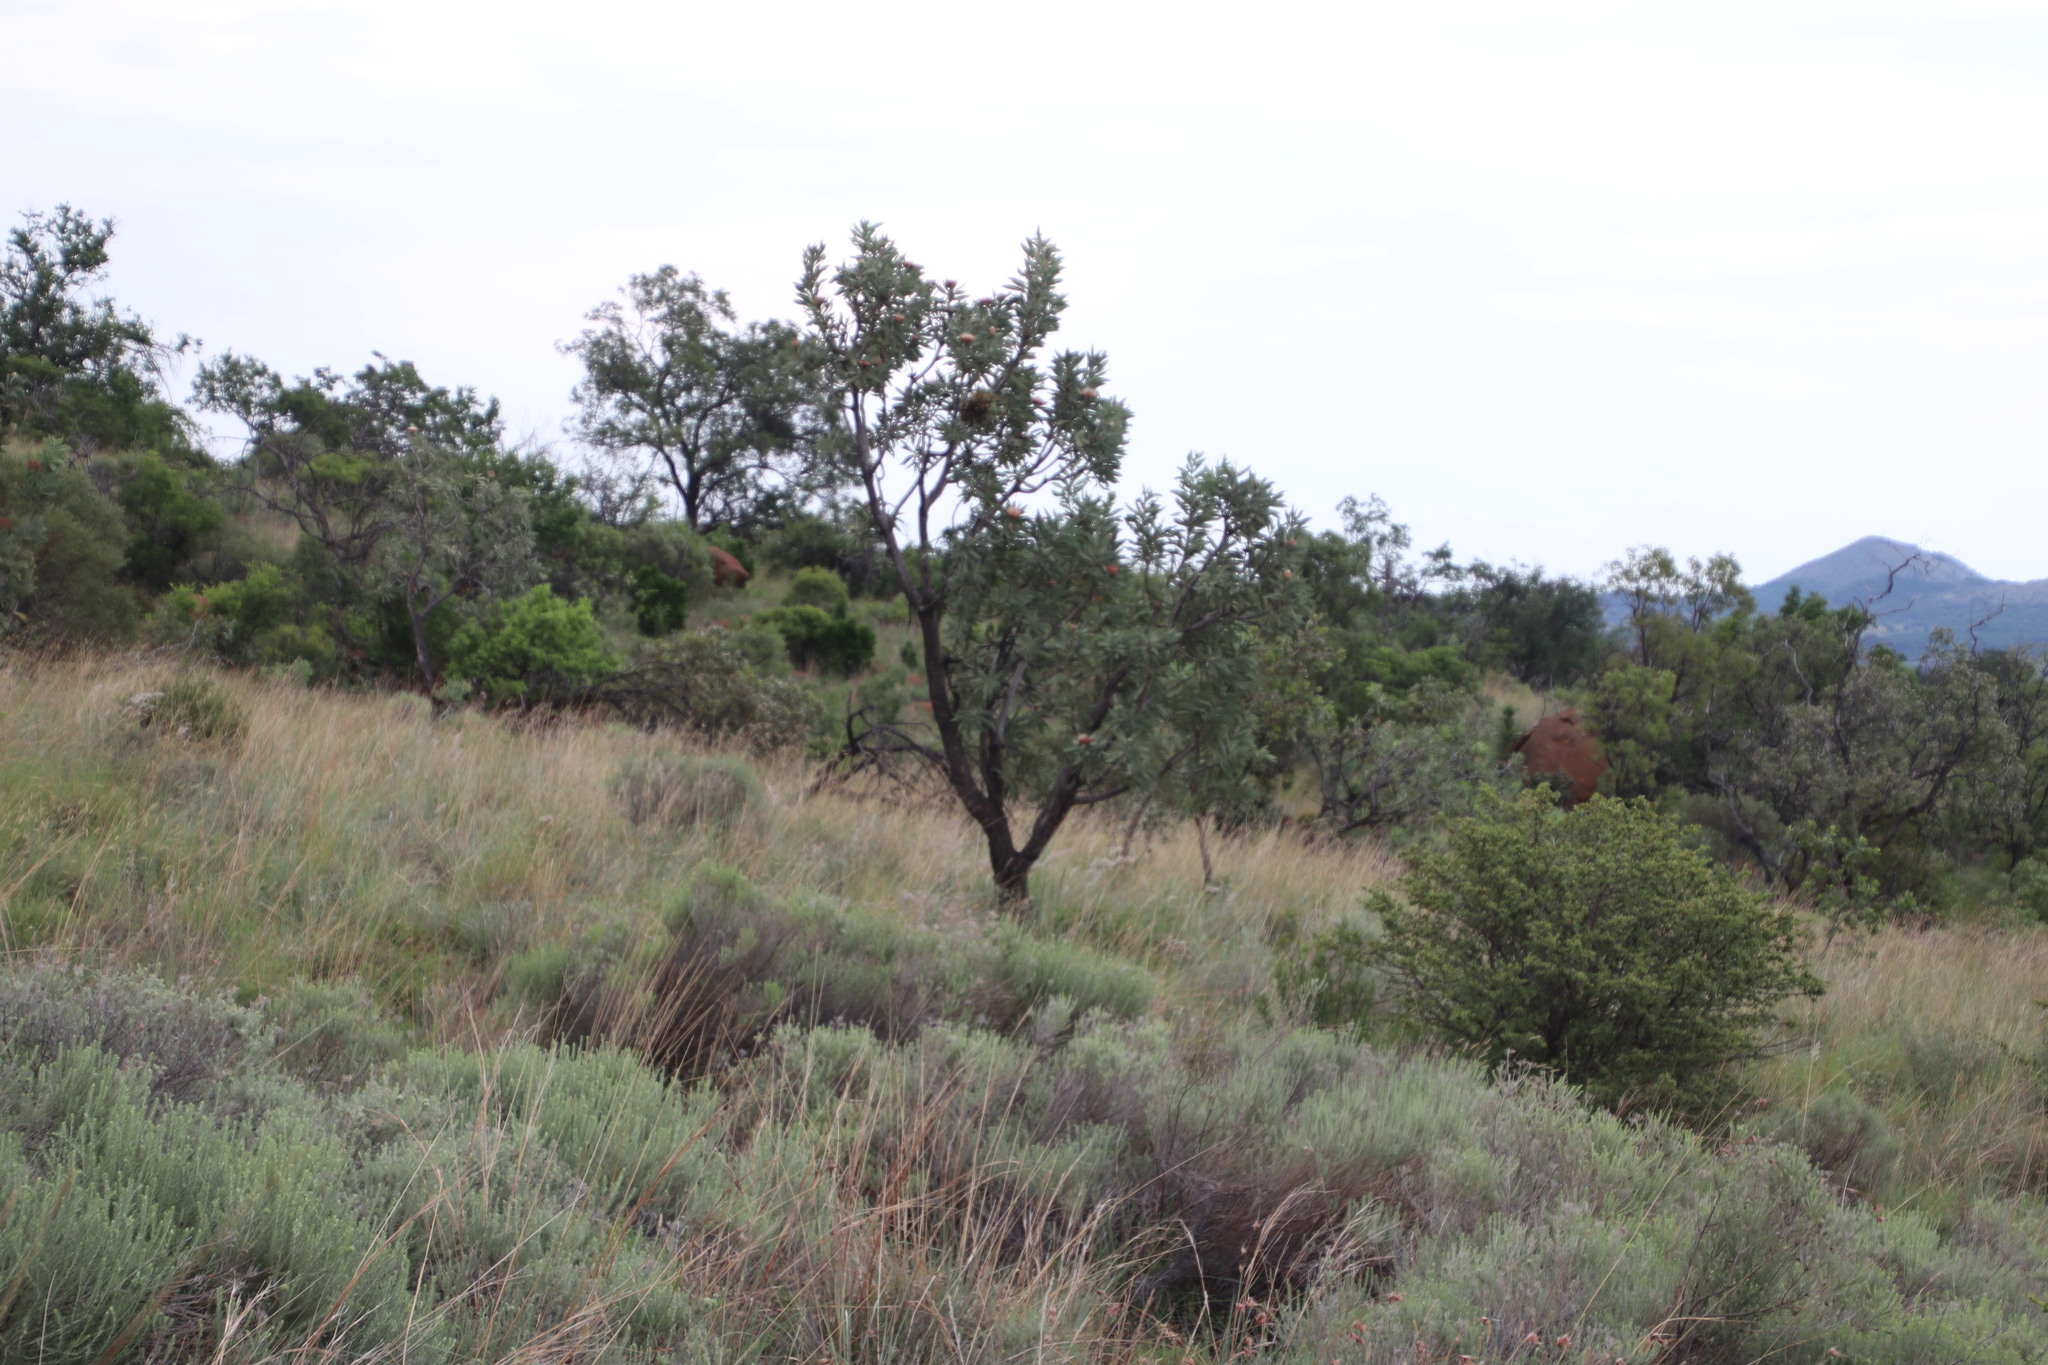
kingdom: Plantae
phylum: Tracheophyta
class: Magnoliopsida
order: Proteales
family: Proteaceae
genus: Protea
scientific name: Protea caffra
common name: Common sugarbush
